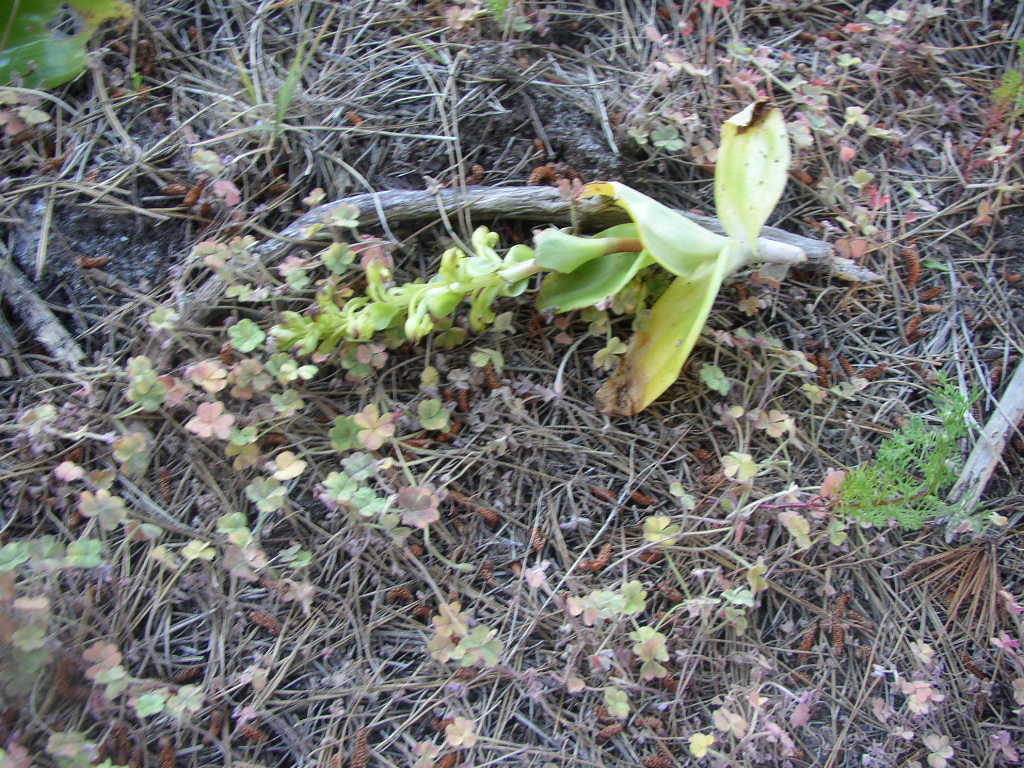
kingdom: Plantae
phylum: Tracheophyta
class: Liliopsida
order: Asparagales
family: Orchidaceae
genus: Satyrium
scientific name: Satyrium odorum
